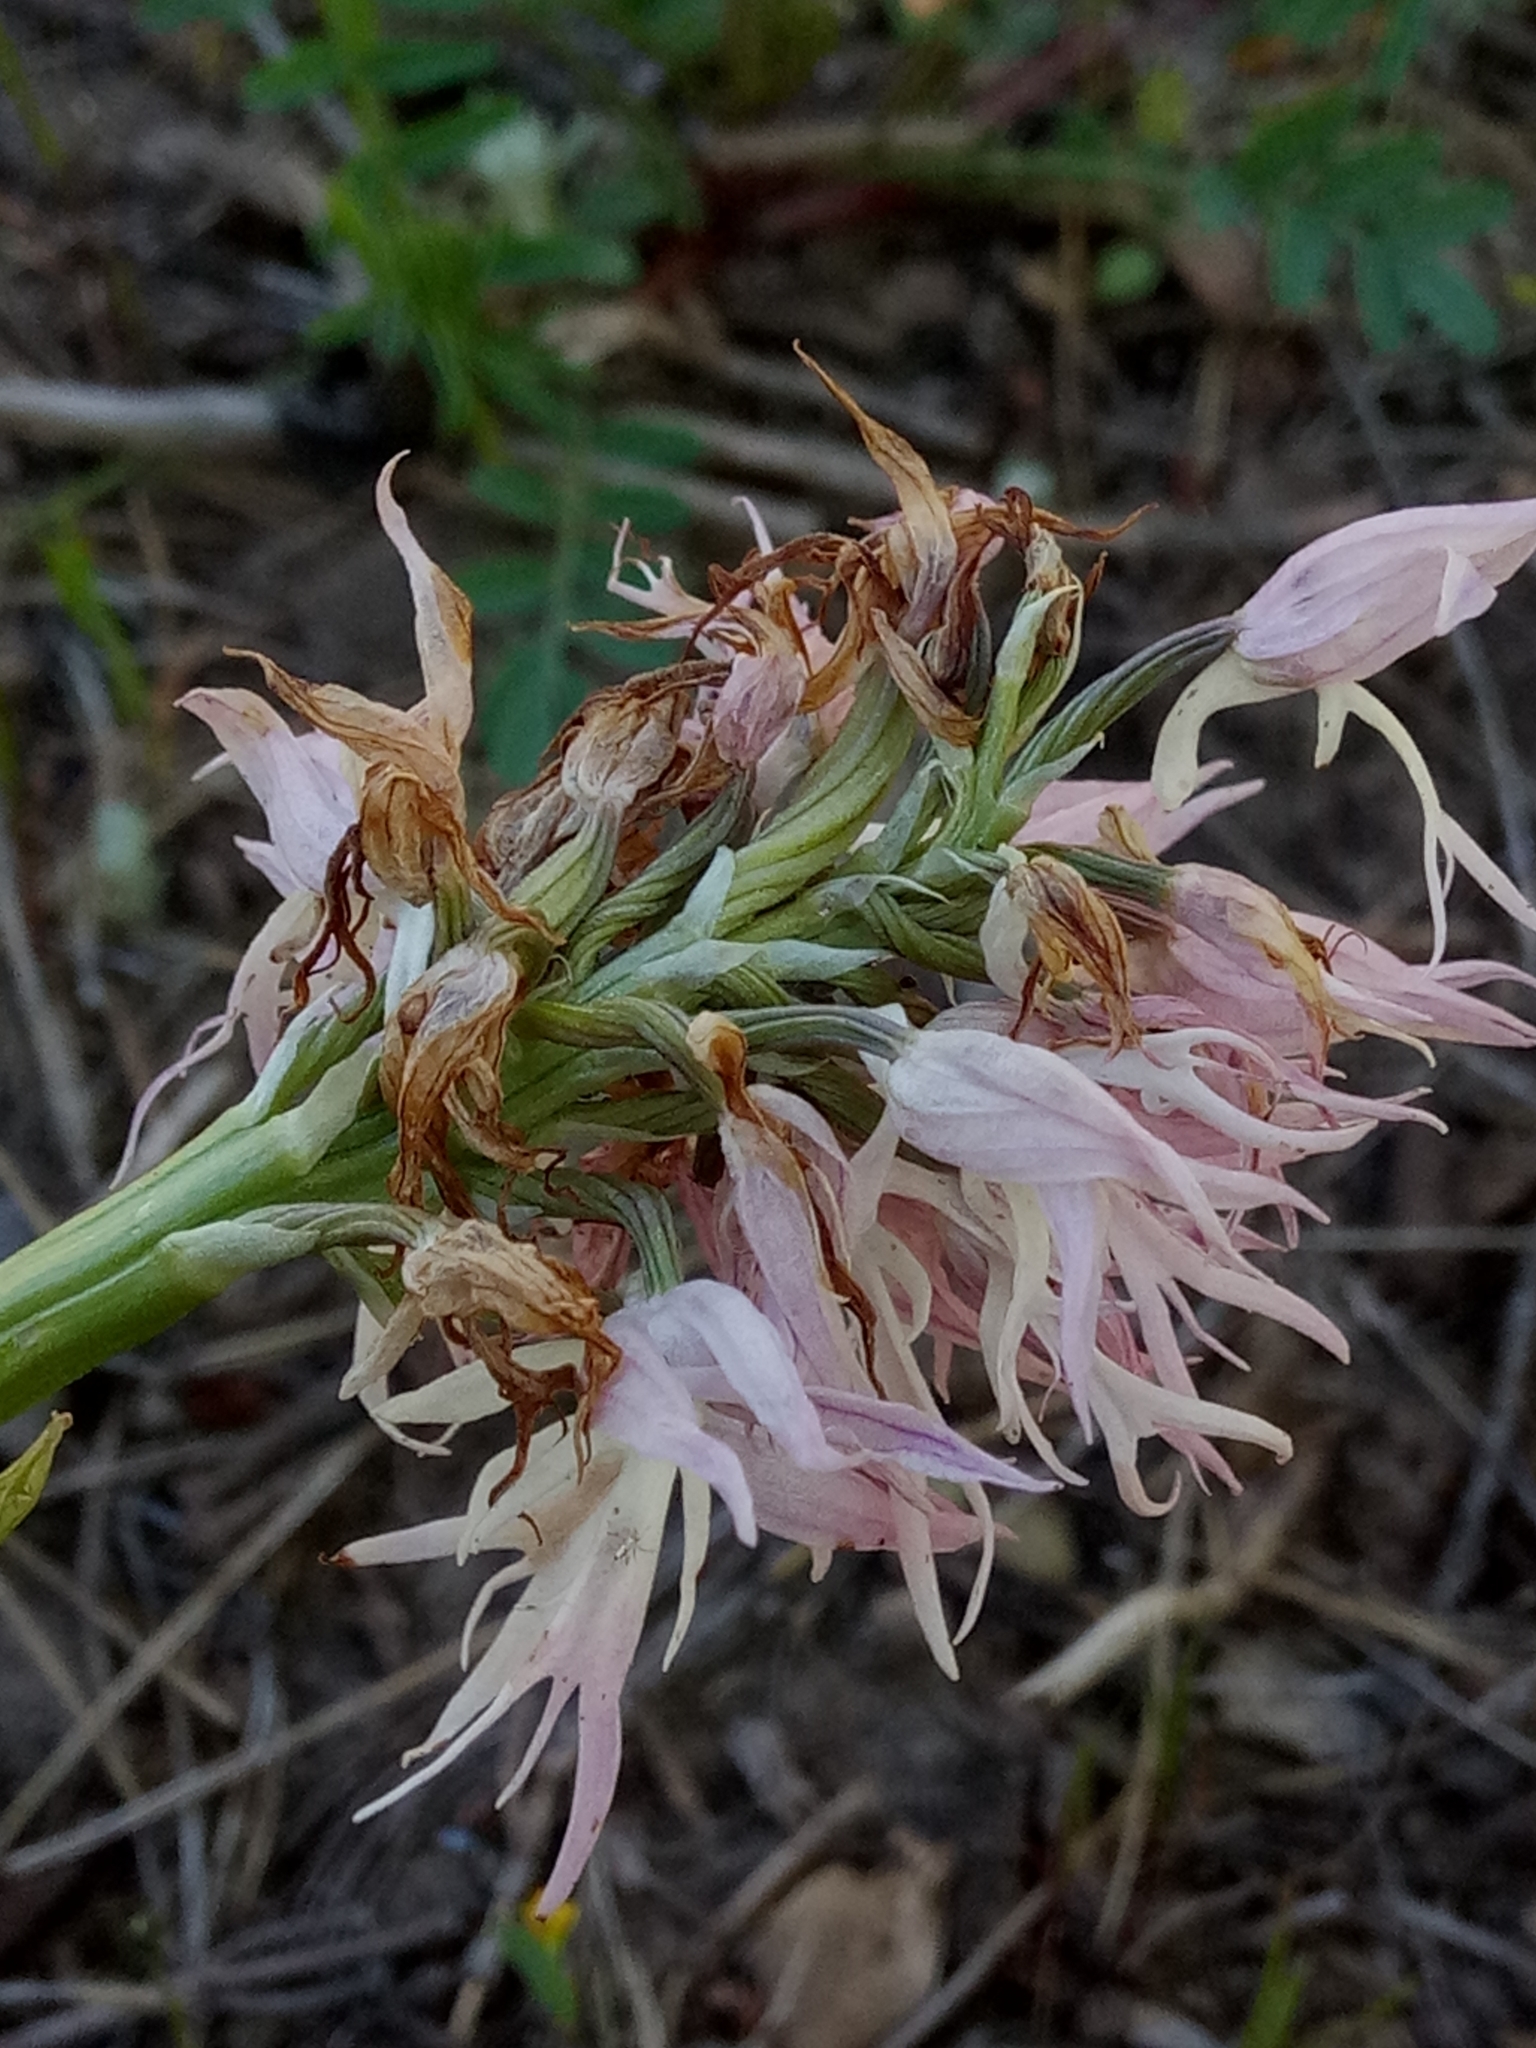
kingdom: Plantae
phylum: Tracheophyta
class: Liliopsida
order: Asparagales
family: Orchidaceae
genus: Orchis
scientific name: Orchis italica
